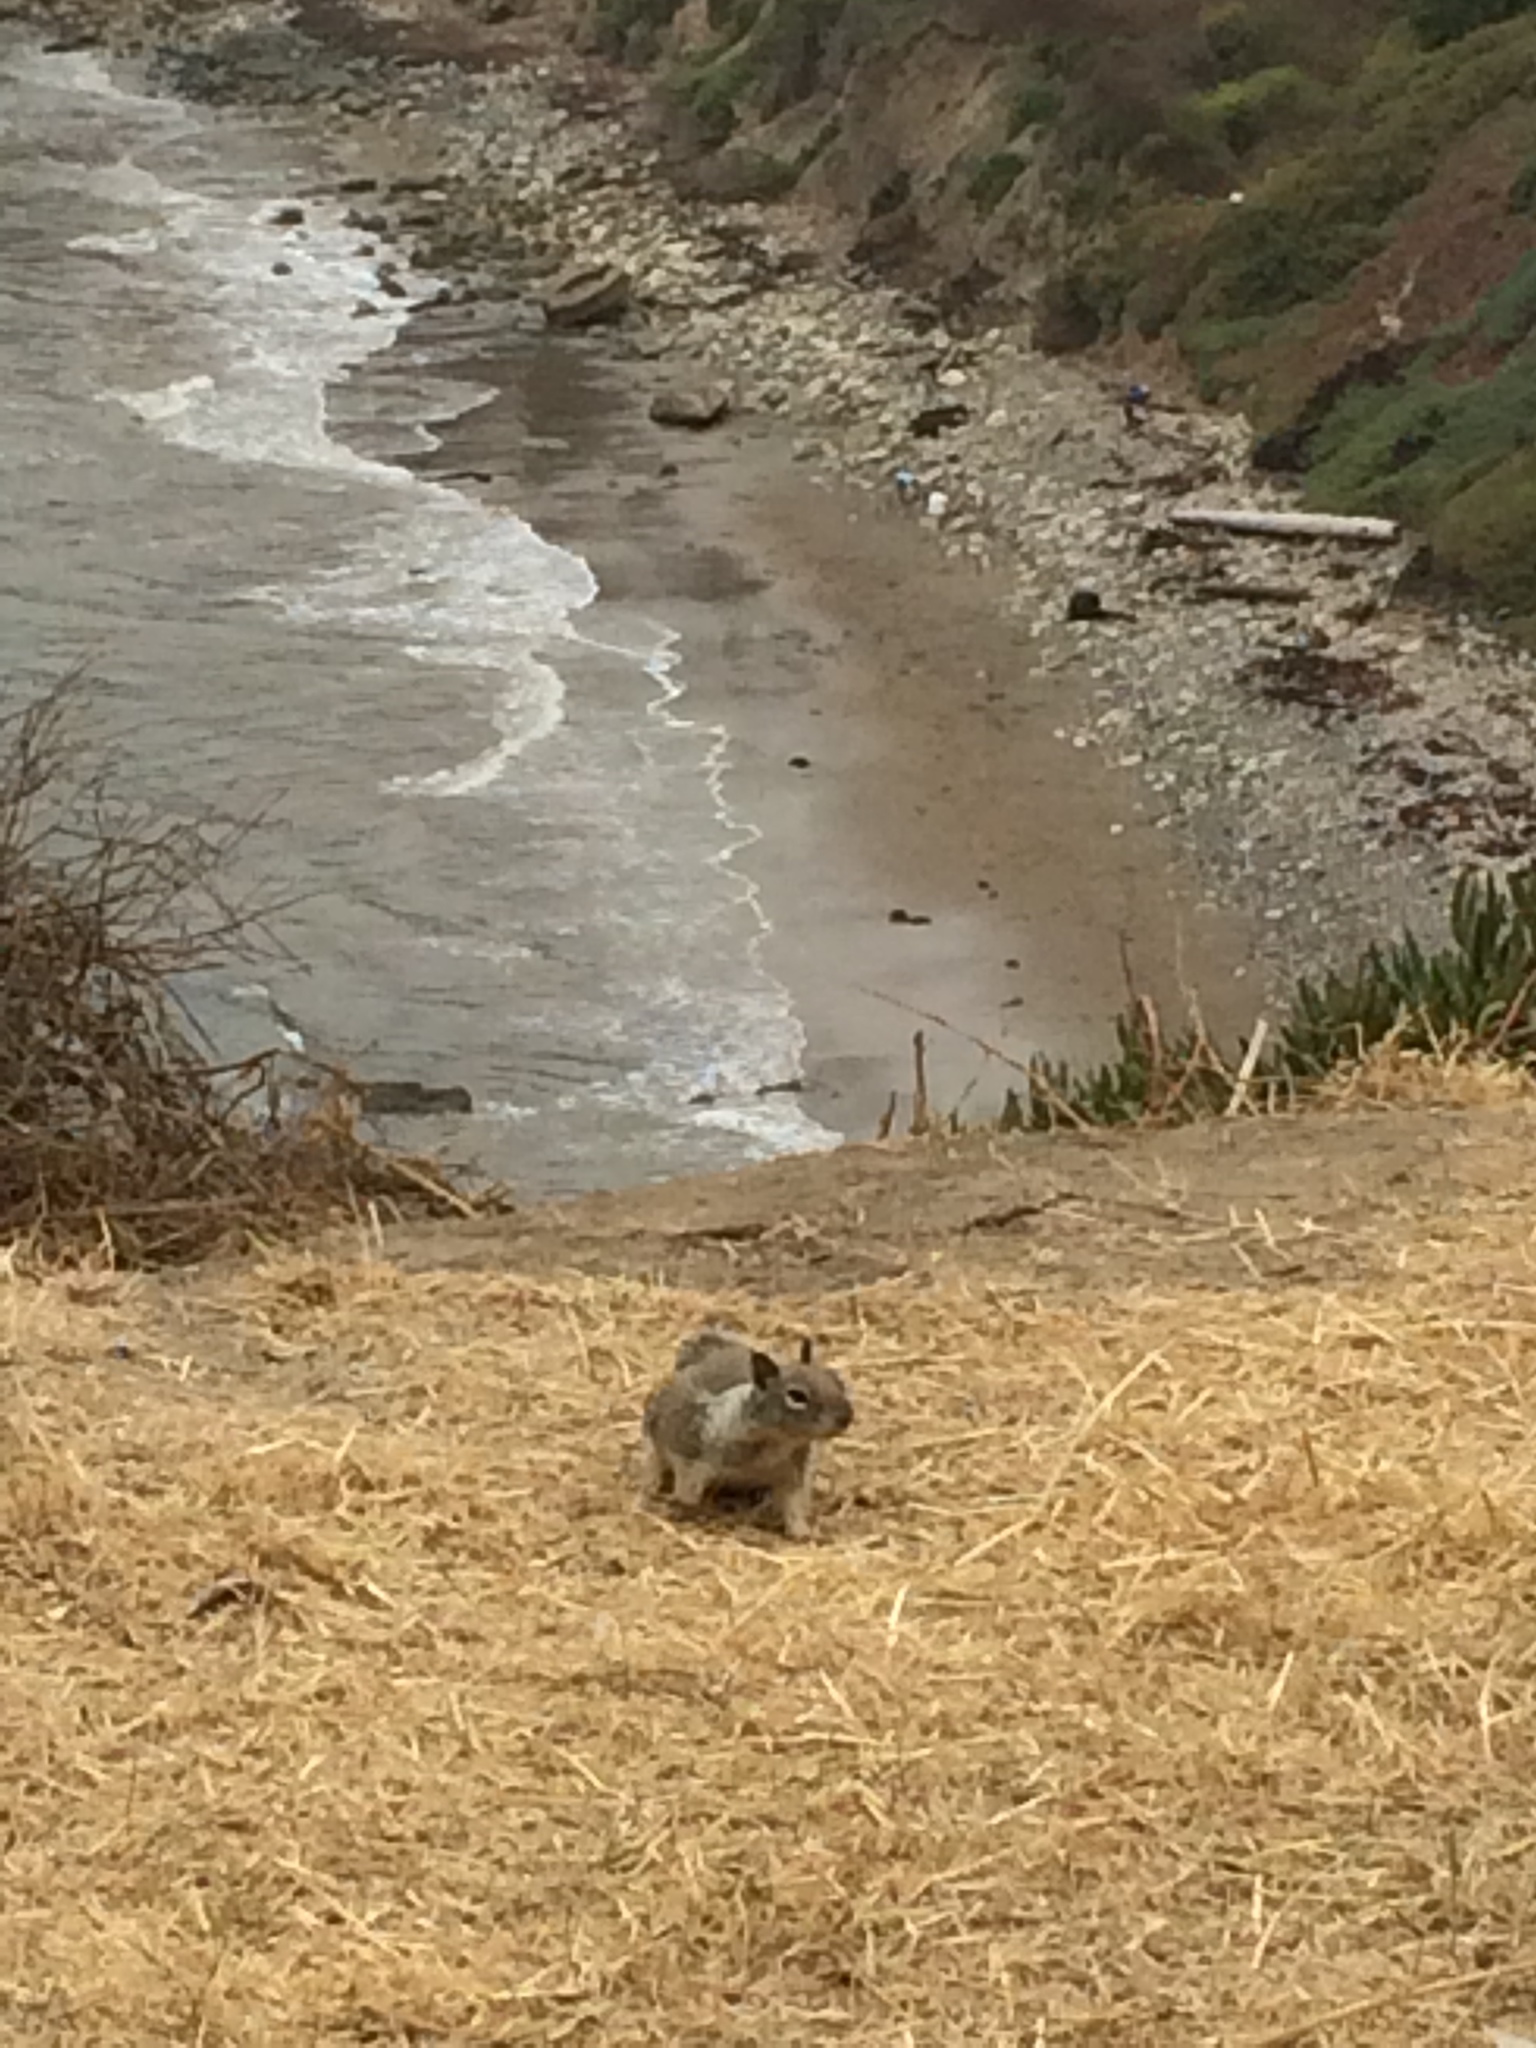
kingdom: Animalia
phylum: Chordata
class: Mammalia
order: Rodentia
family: Sciuridae
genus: Otospermophilus
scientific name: Otospermophilus beecheyi
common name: California ground squirrel
